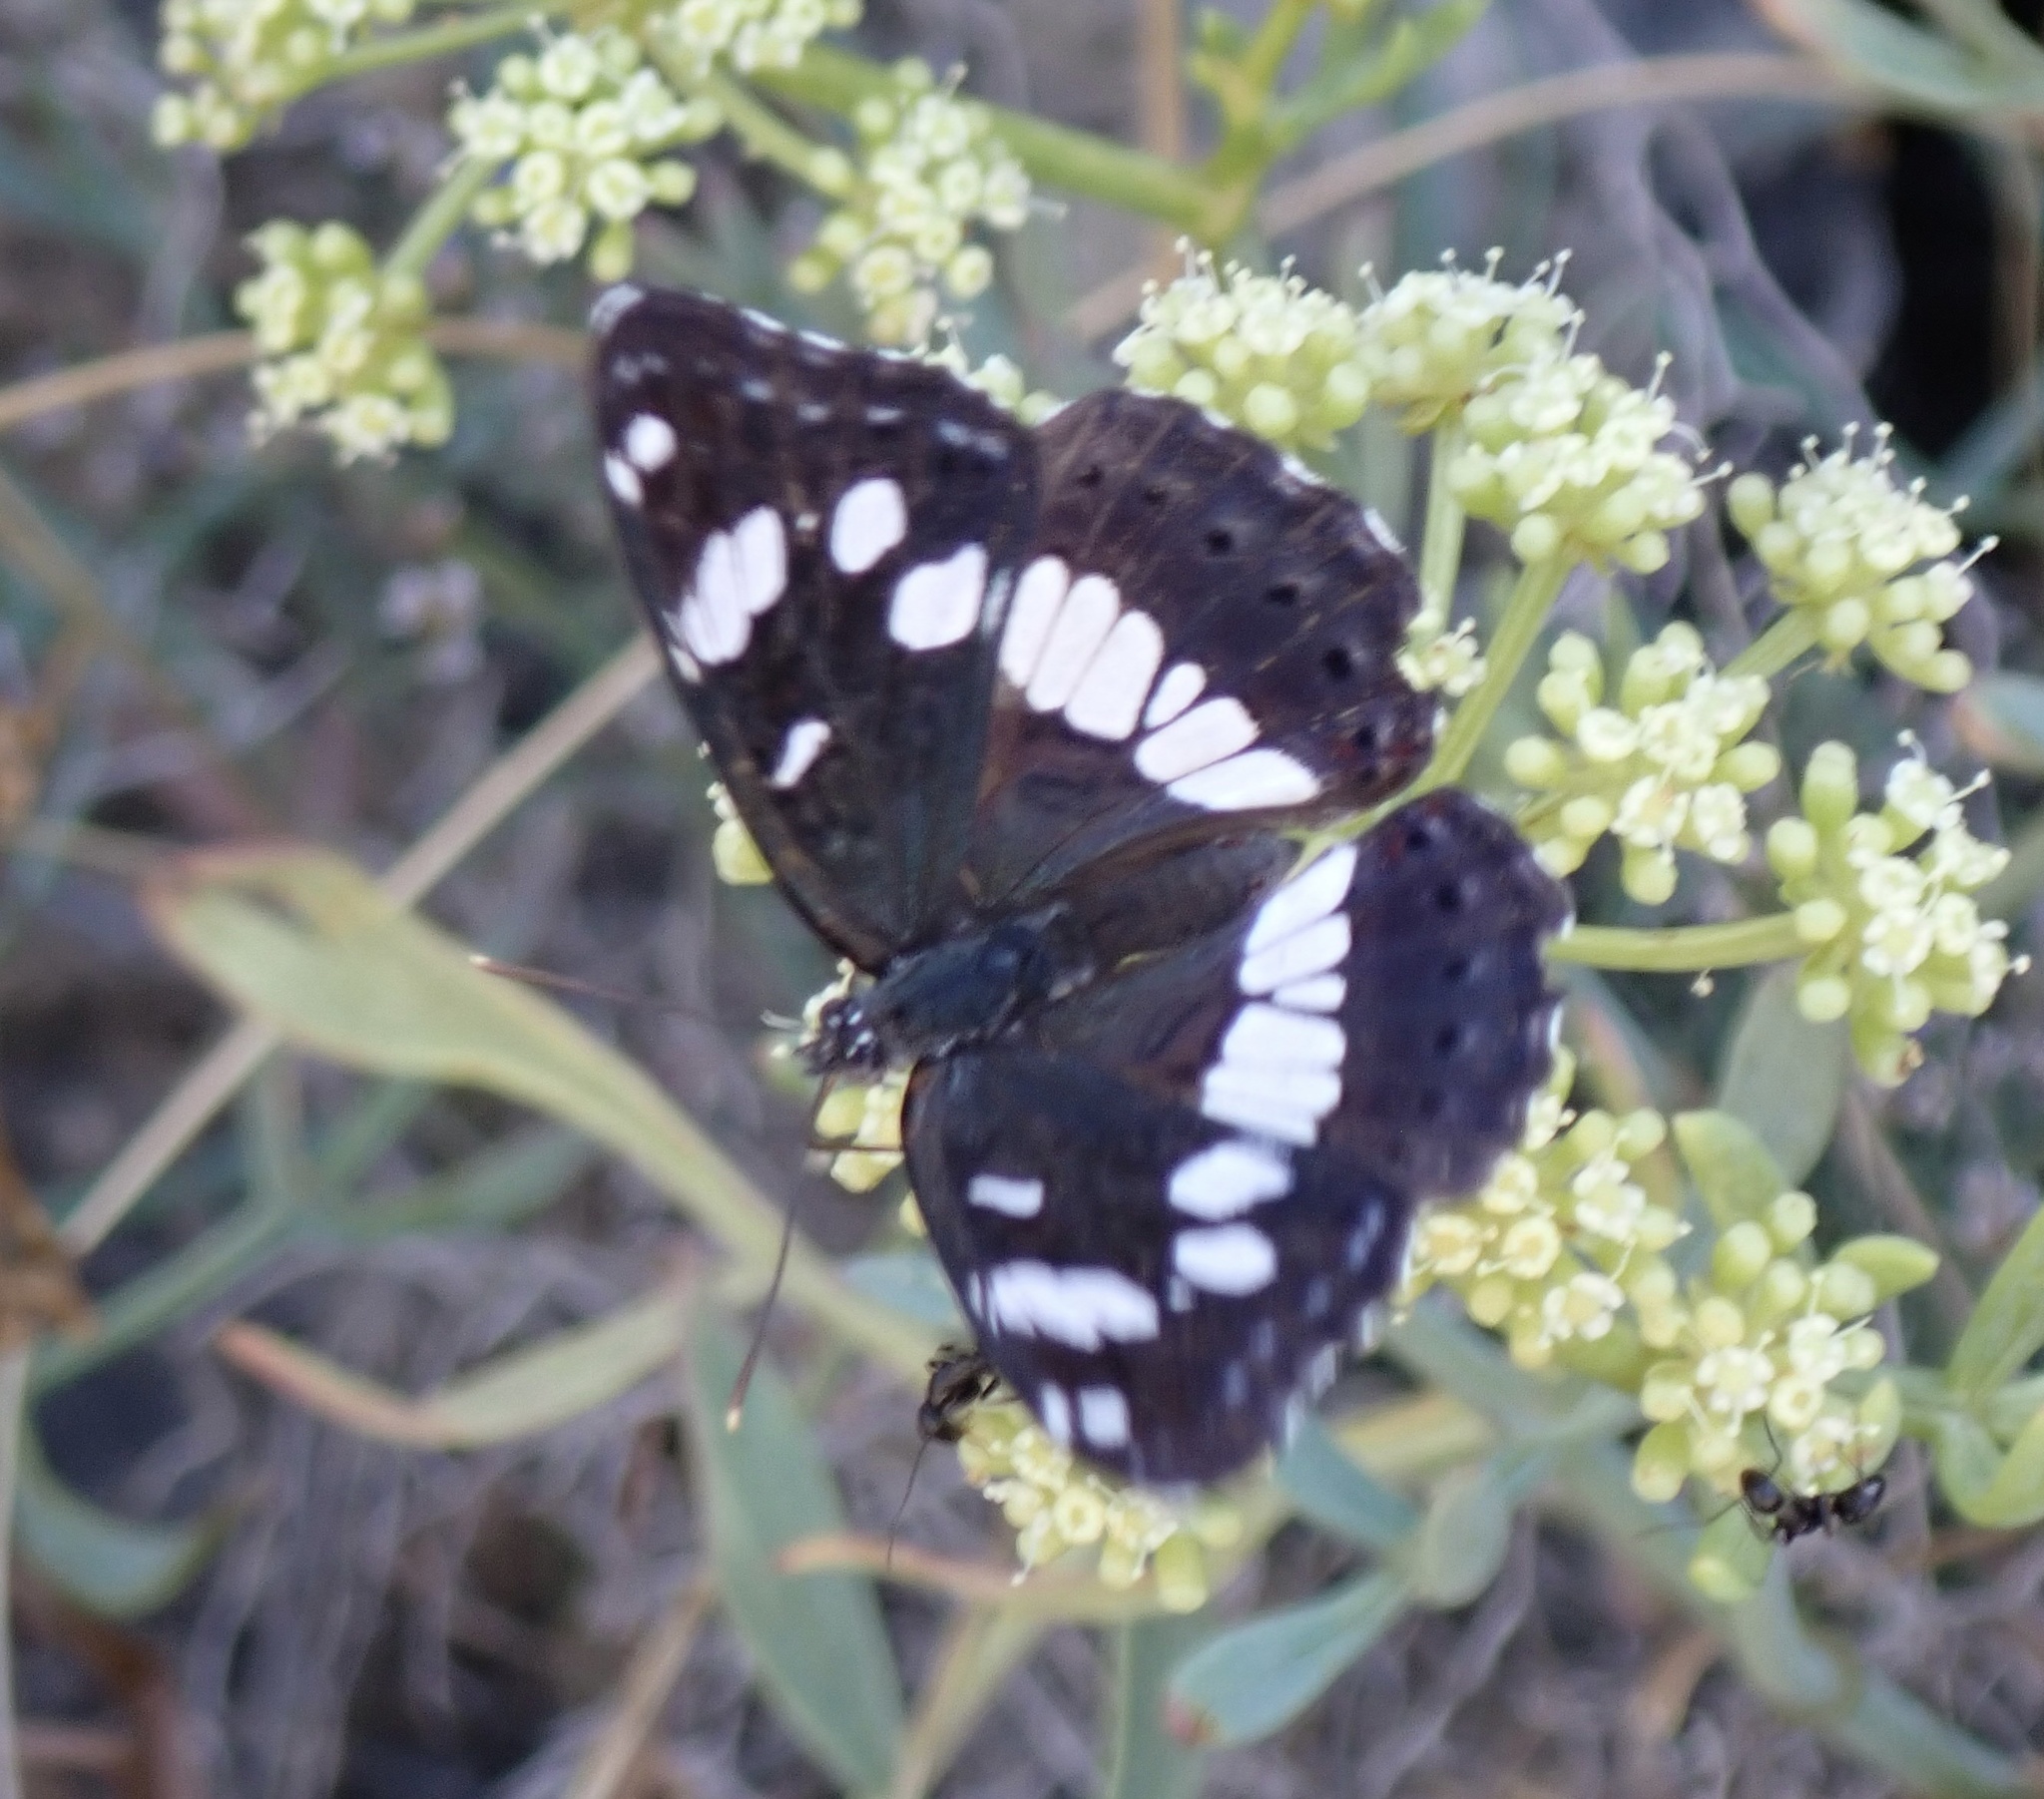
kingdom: Animalia
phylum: Arthropoda
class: Insecta
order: Lepidoptera
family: Nymphalidae
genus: Limenitis
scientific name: Limenitis reducta
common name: Southern white admiral
